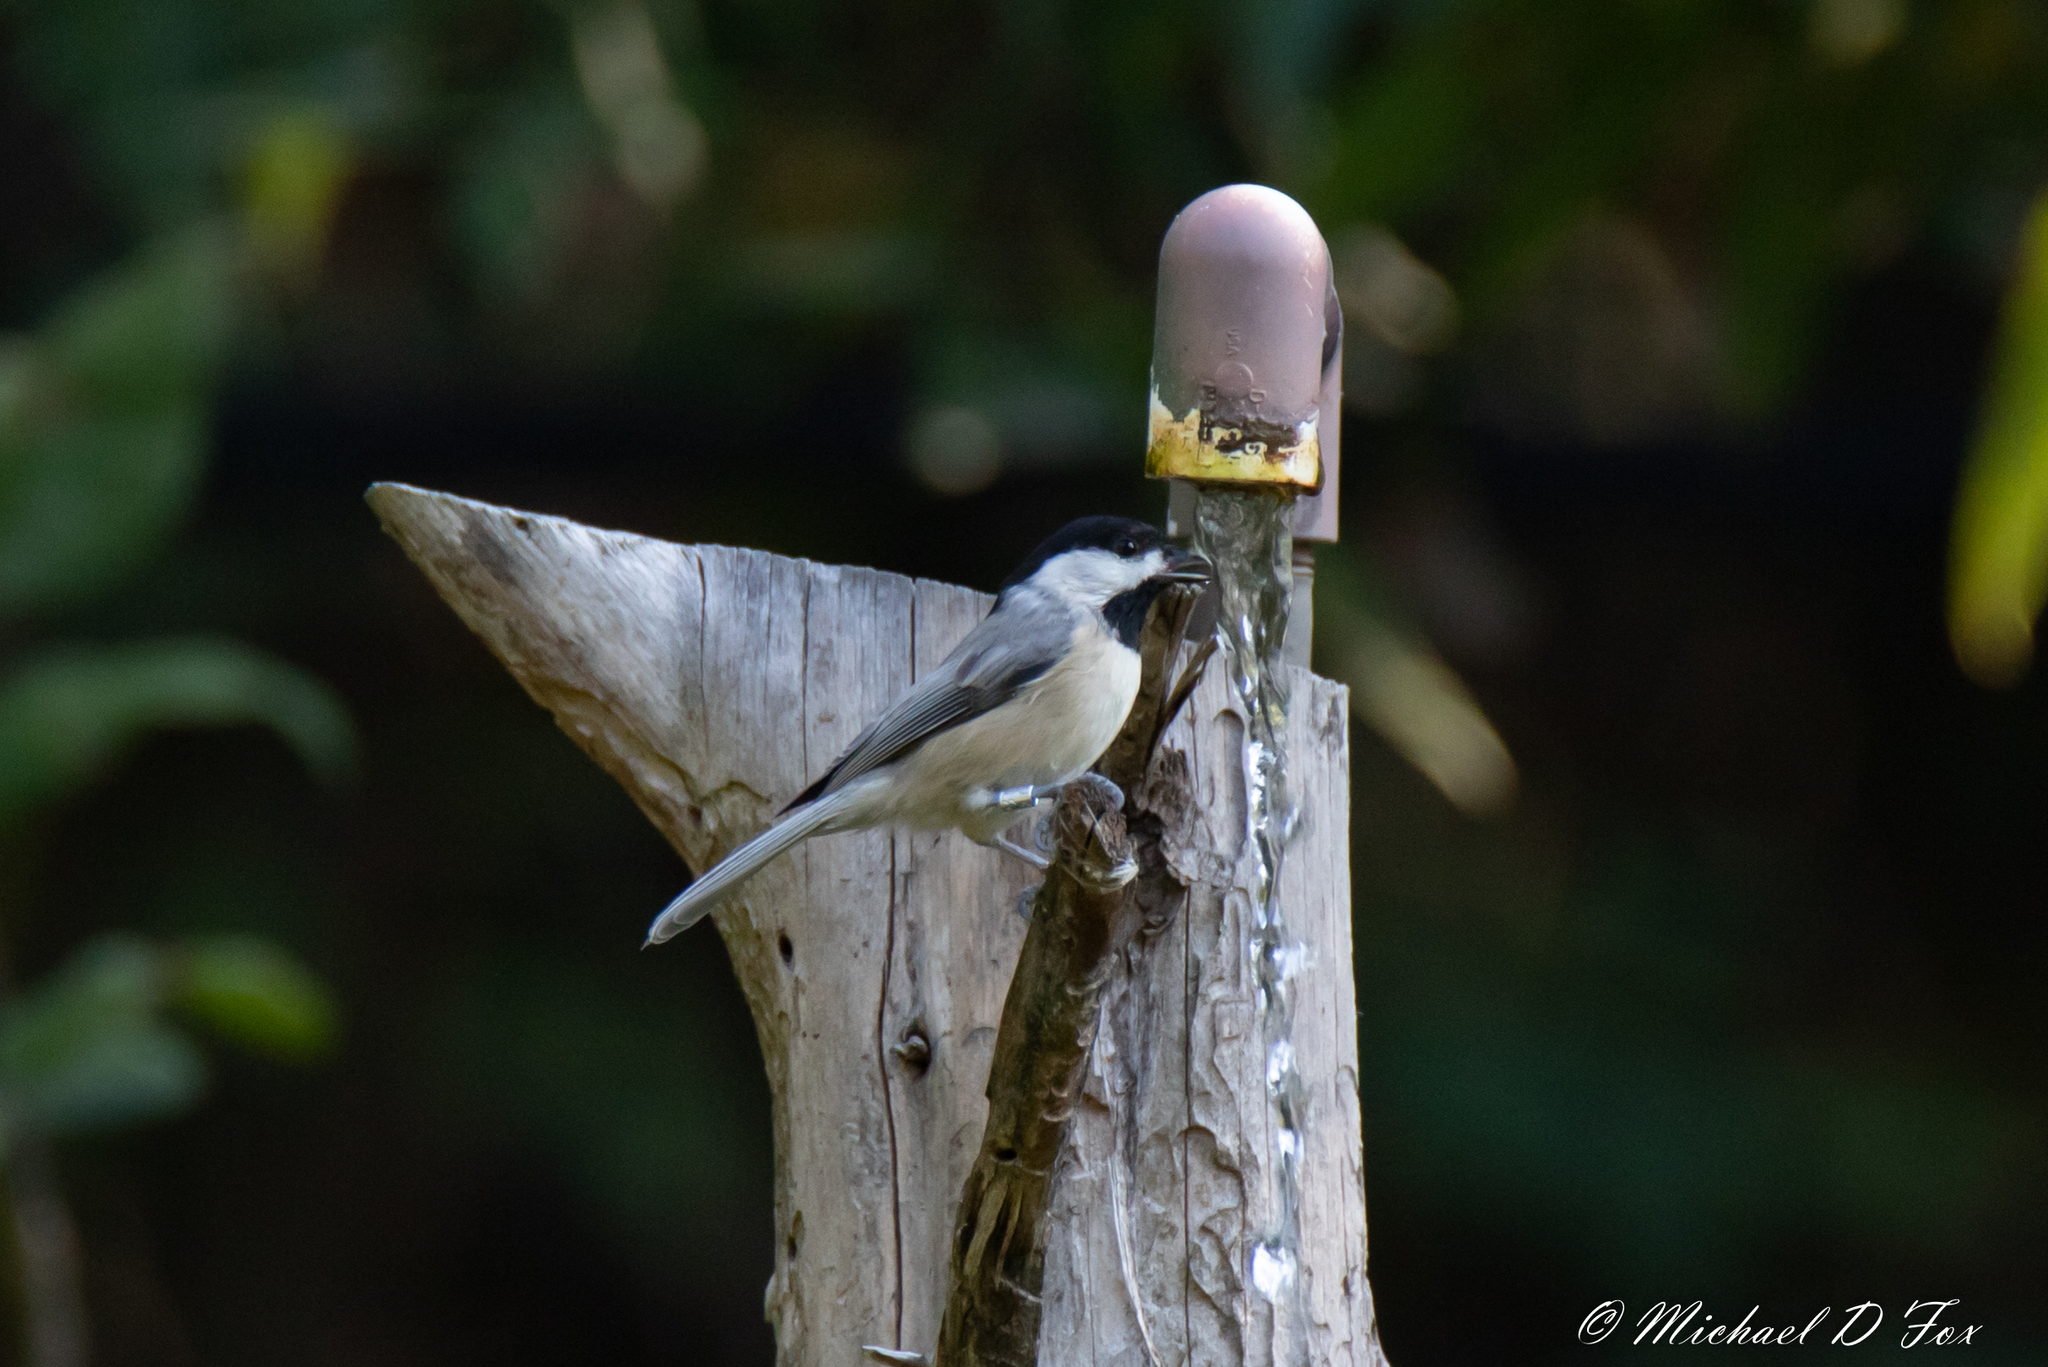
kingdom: Animalia
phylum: Chordata
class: Aves
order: Passeriformes
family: Paridae
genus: Poecile
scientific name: Poecile carolinensis
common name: Carolina chickadee
